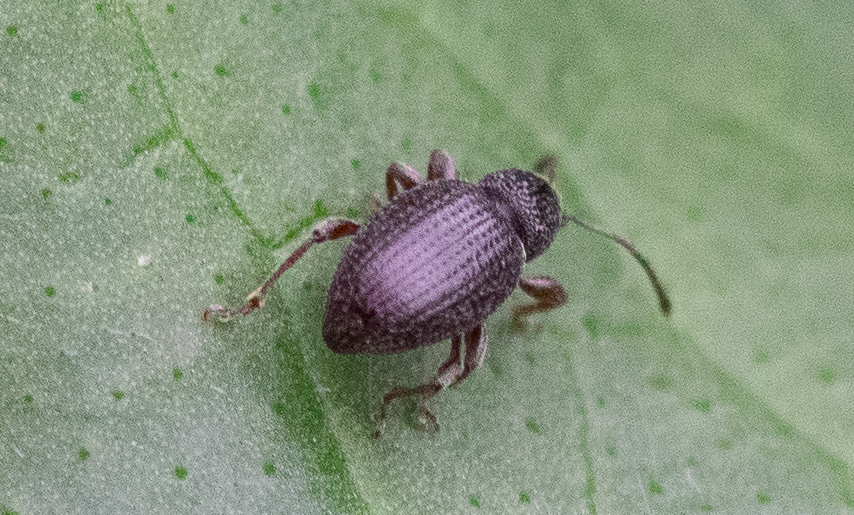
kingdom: Animalia
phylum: Arthropoda
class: Insecta
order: Coleoptera
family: Curculionidae
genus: Otiorhynchus
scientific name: Otiorhynchus ovatus
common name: Strawberry root weevil
